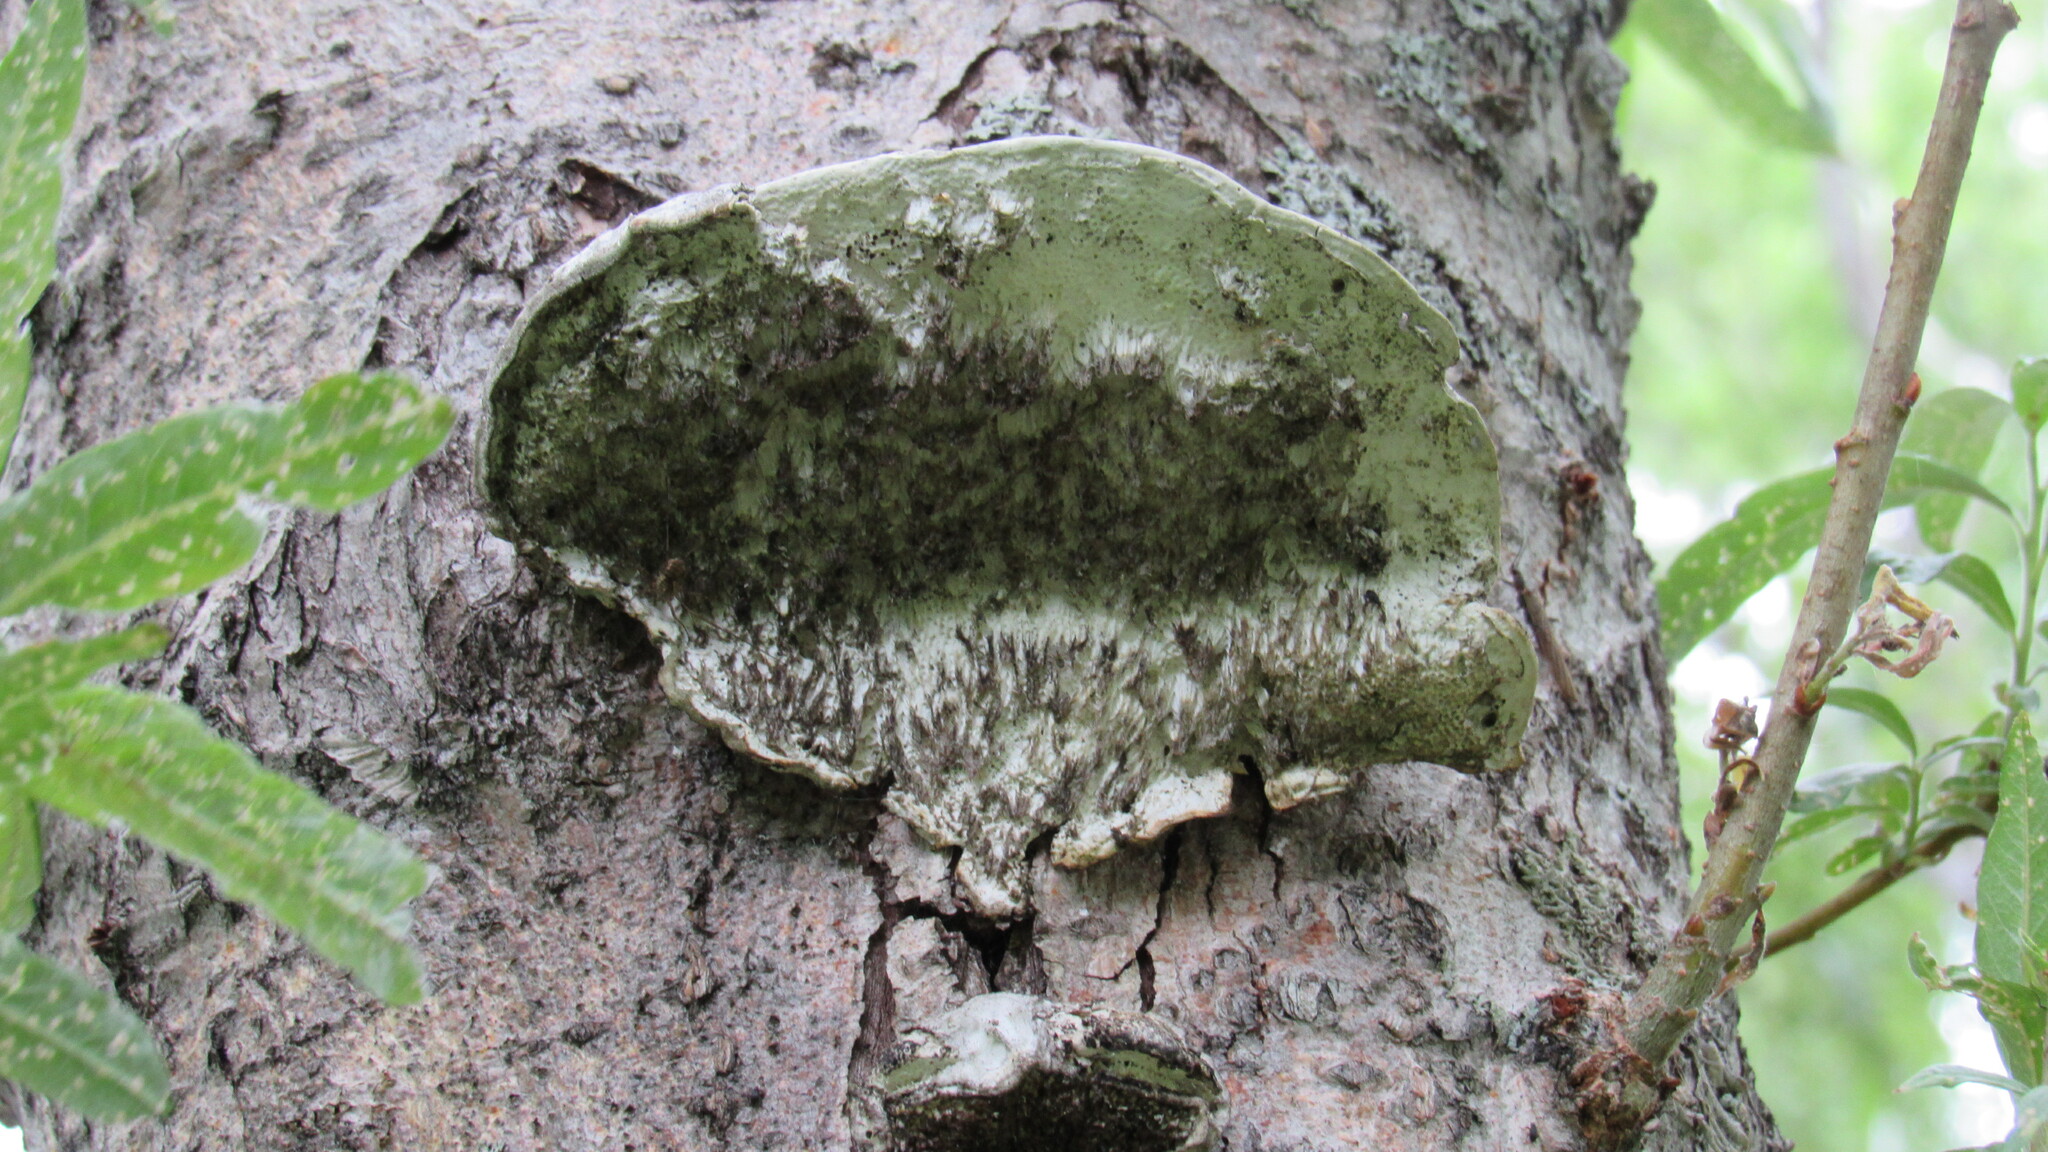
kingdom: Fungi
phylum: Basidiomycota
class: Agaricomycetes
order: Polyporales
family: Polyporaceae
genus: Fomes
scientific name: Fomes fomentarius
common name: Hoof fungus
